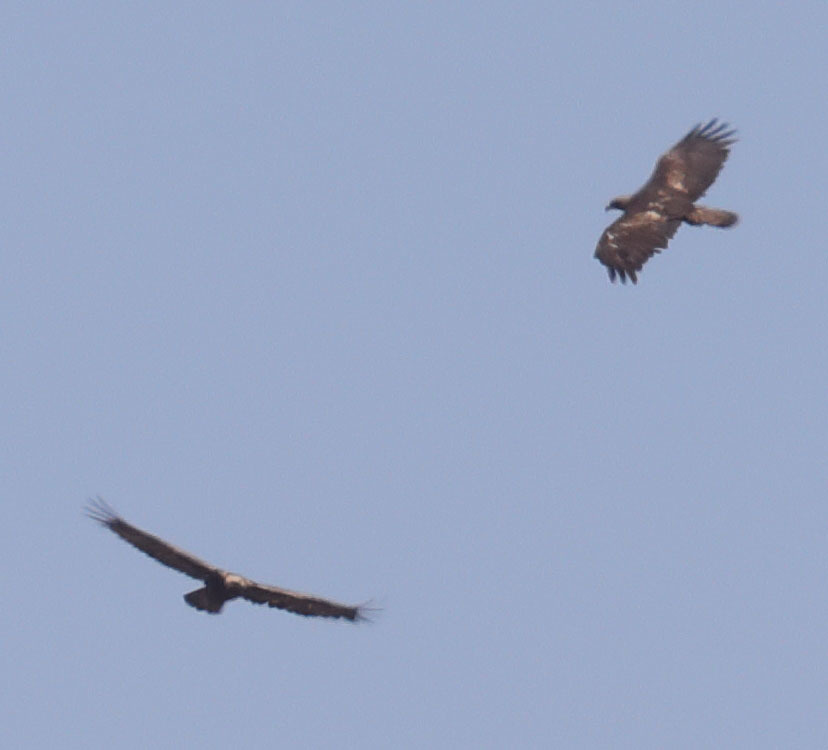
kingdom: Animalia
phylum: Chordata
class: Aves
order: Accipitriformes
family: Accipitridae
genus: Aquila
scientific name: Aquila chrysaetos
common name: Golden eagle
